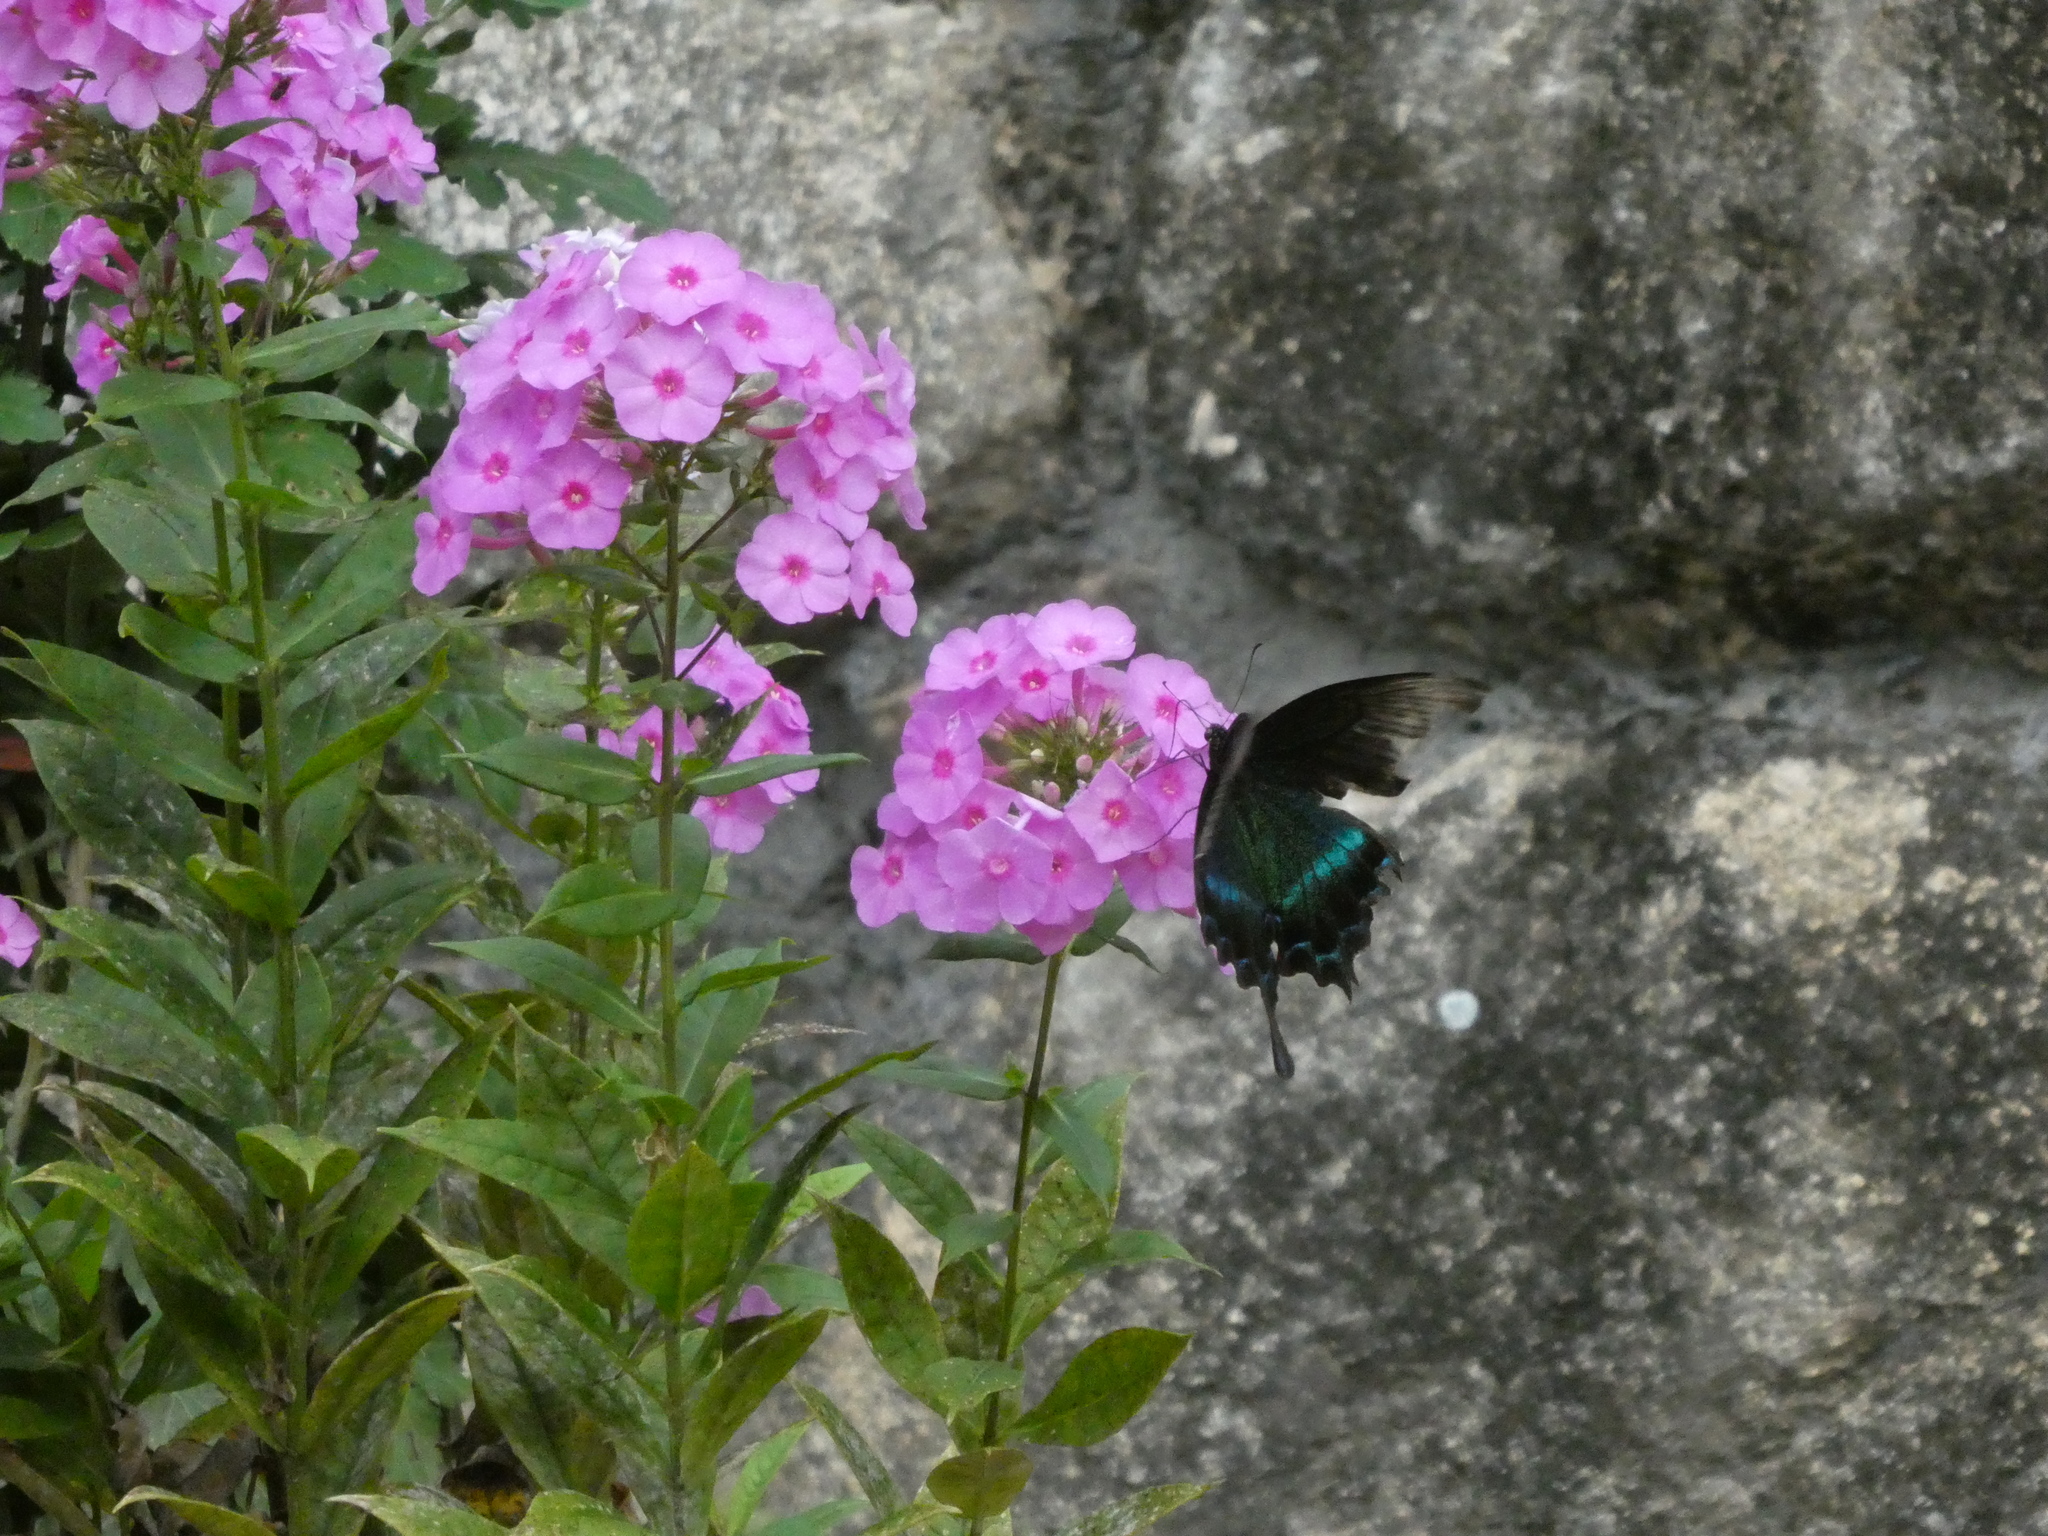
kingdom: Animalia
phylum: Arthropoda
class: Insecta
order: Lepidoptera
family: Papilionidae
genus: Papilio
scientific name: Papilio maackii
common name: Alpine black swallowtail
